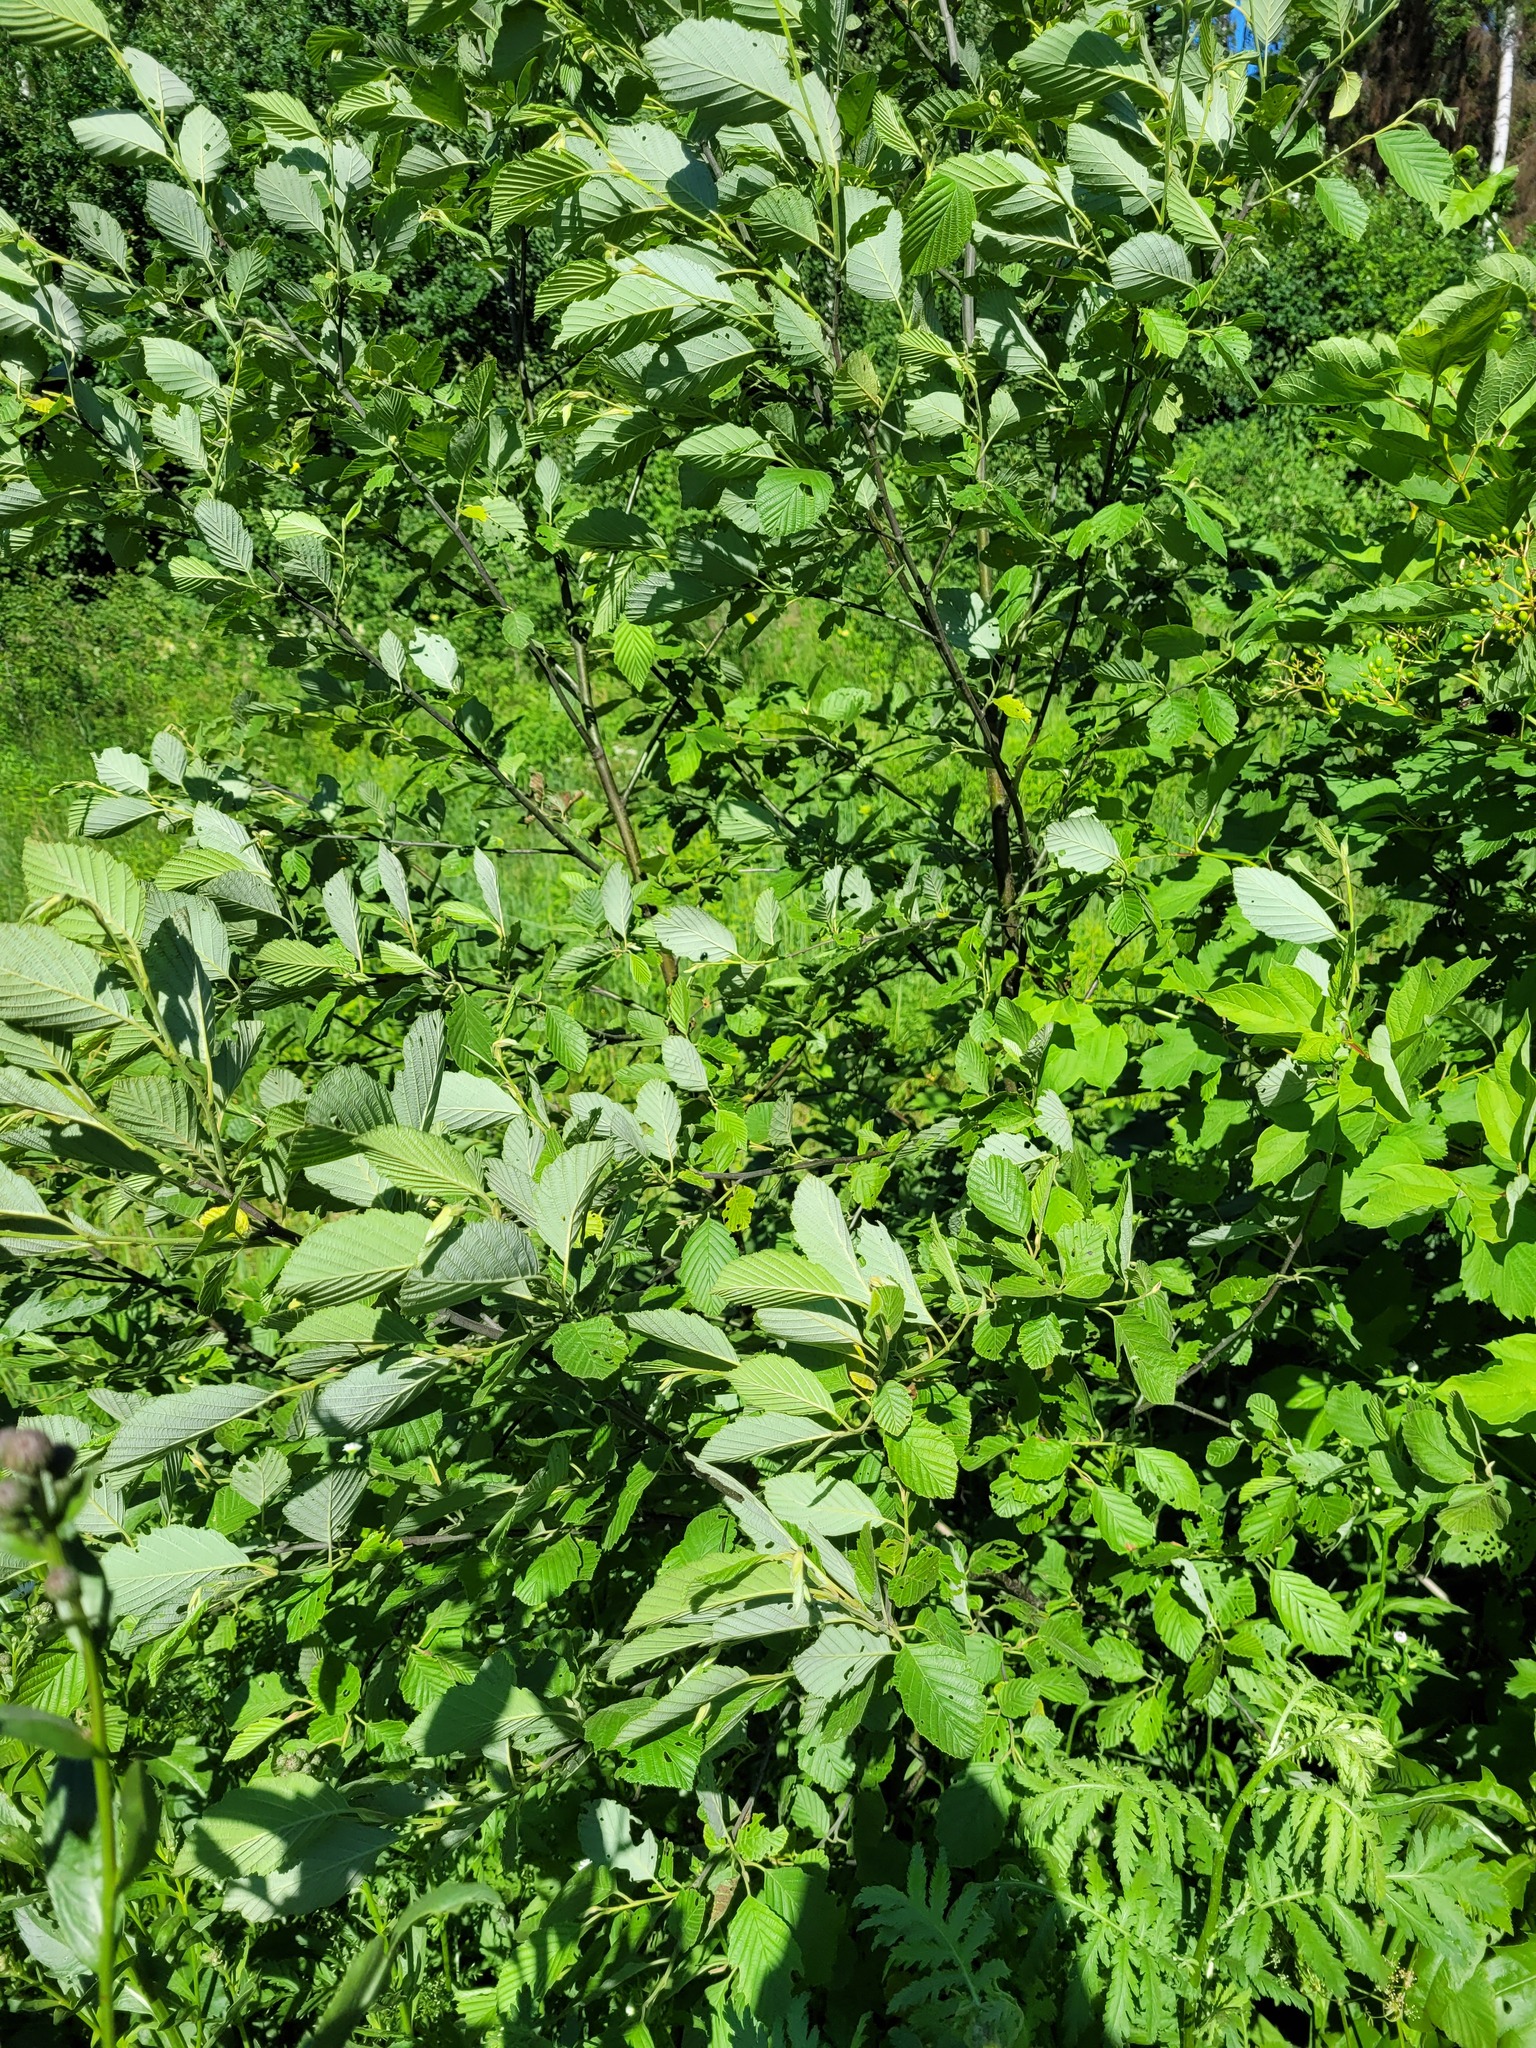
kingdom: Plantae
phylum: Tracheophyta
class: Magnoliopsida
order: Fagales
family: Betulaceae
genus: Alnus
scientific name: Alnus incana
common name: Grey alder
